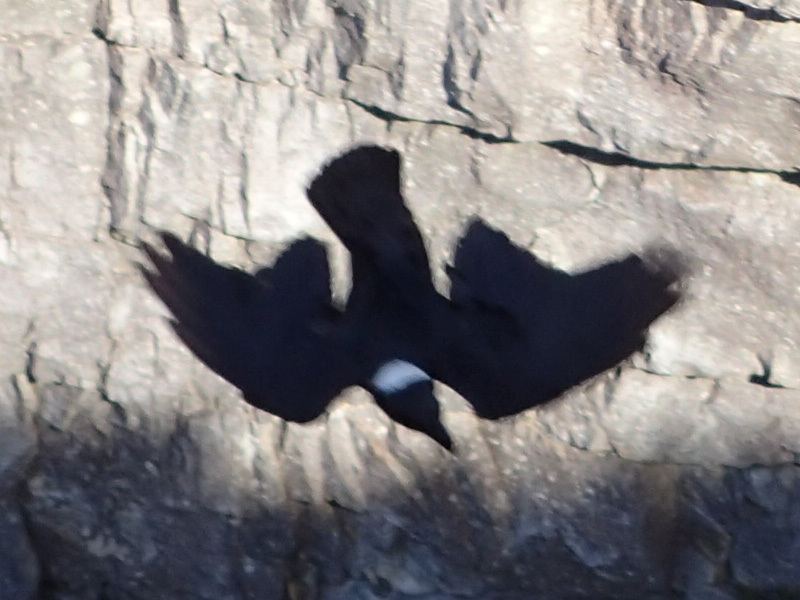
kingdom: Animalia
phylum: Chordata
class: Aves
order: Passeriformes
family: Corvidae
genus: Corvus
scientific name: Corvus albicollis
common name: White-necked raven
